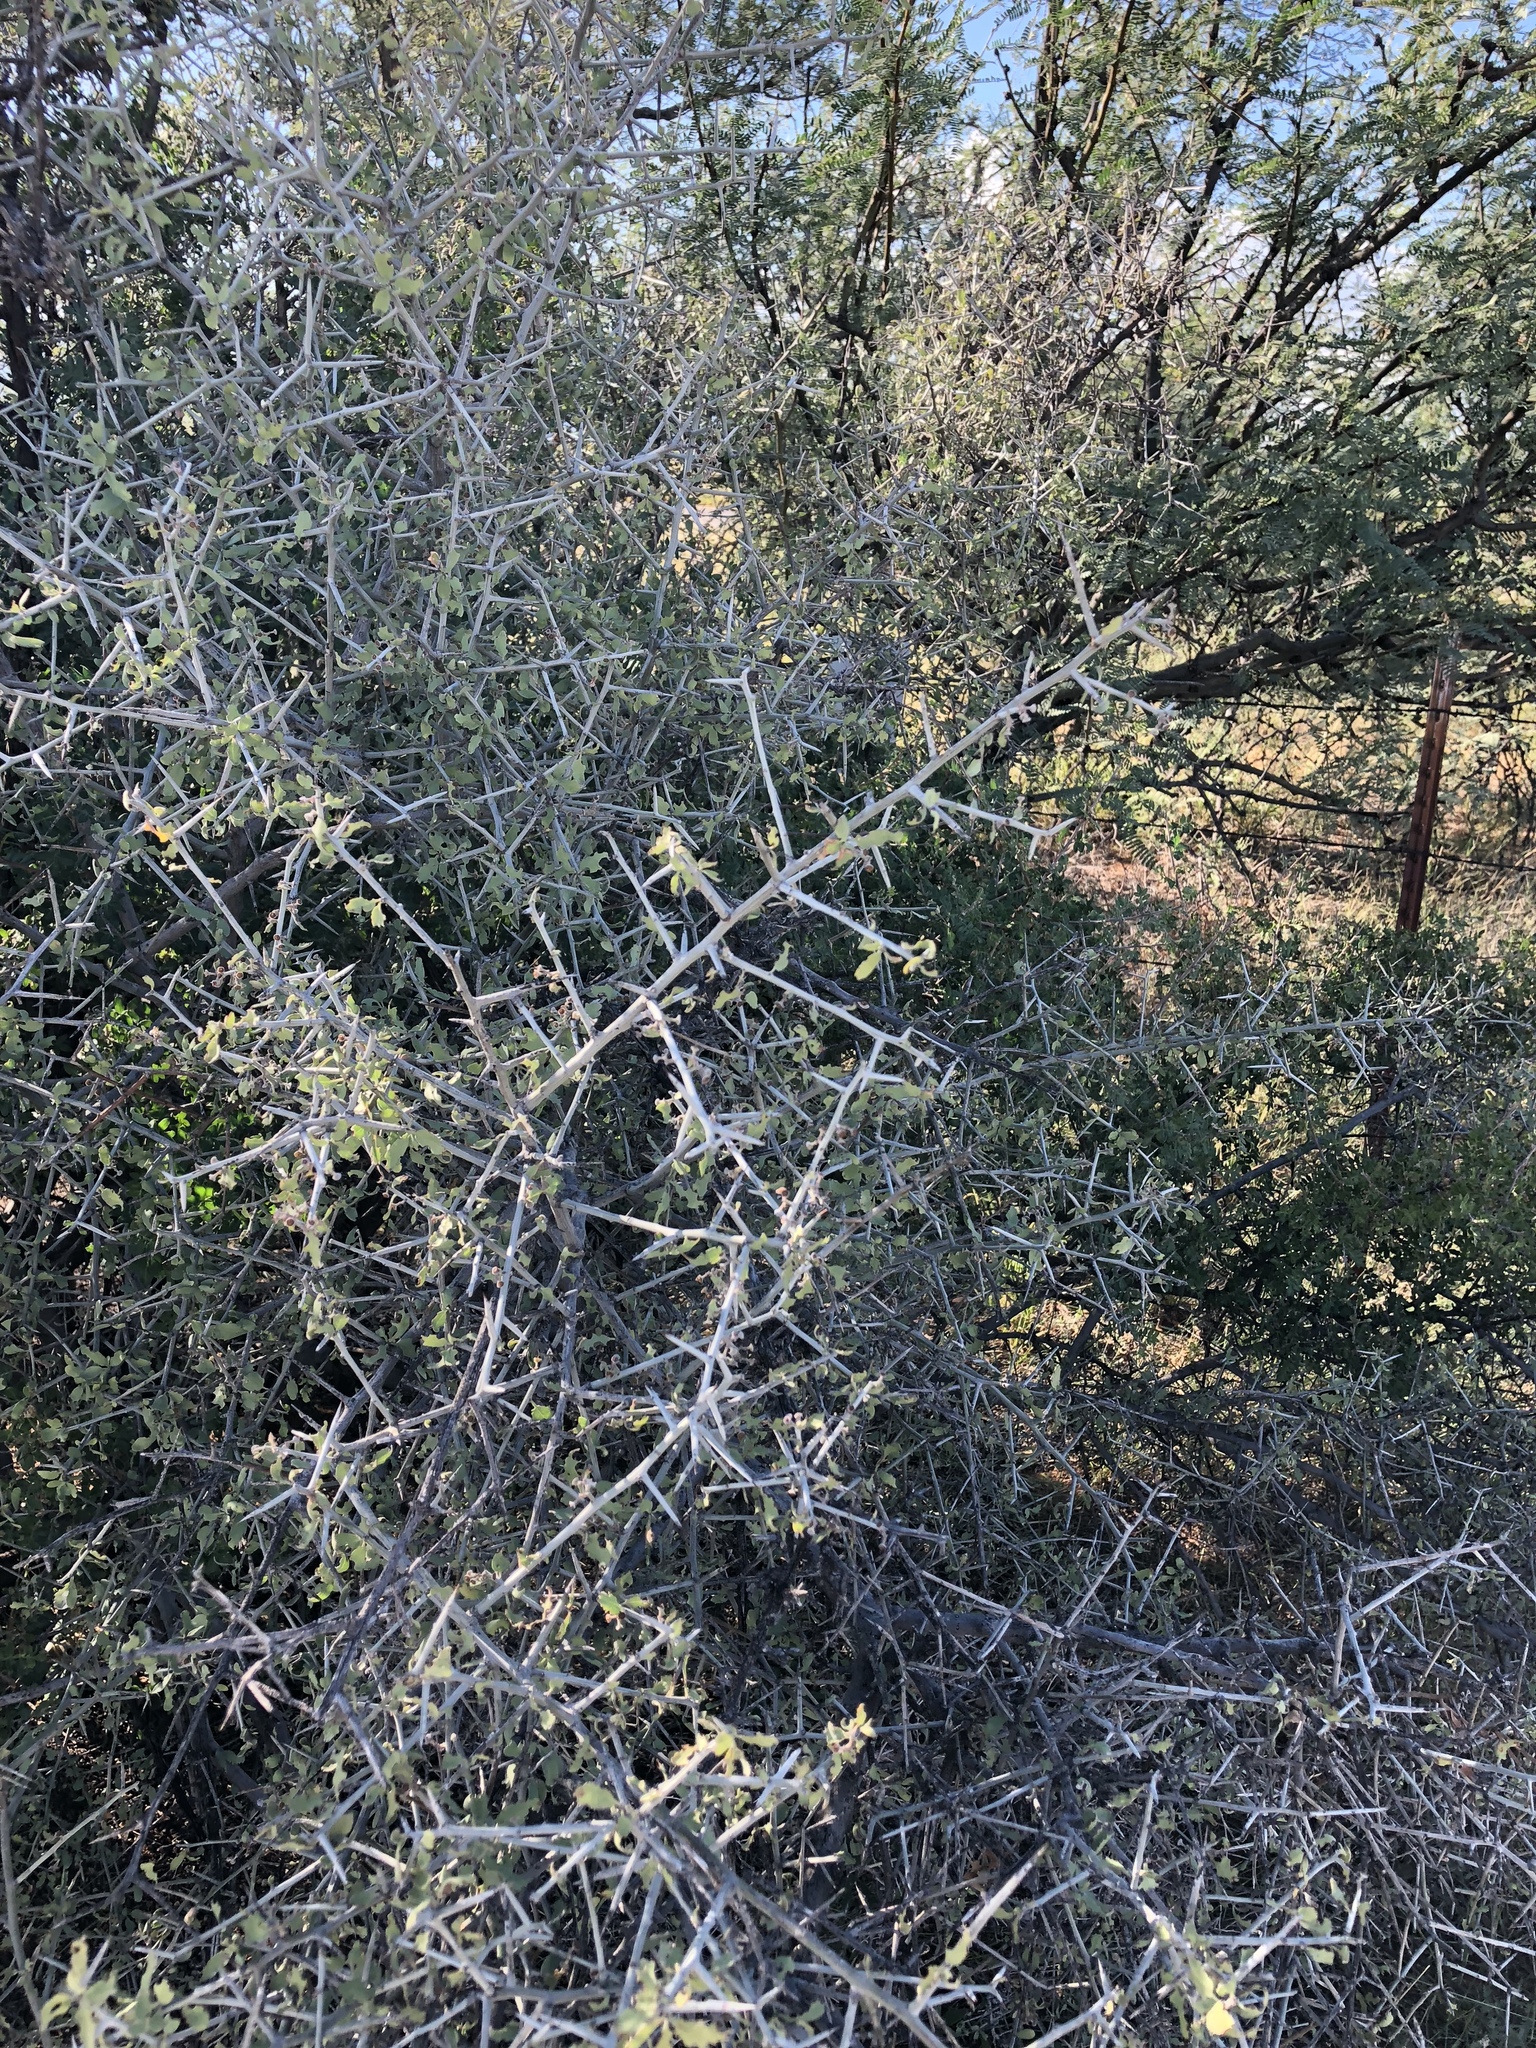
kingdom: Plantae
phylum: Tracheophyta
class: Magnoliopsida
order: Rosales
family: Rhamnaceae
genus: Sarcomphalus
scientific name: Sarcomphalus obtusifolius
